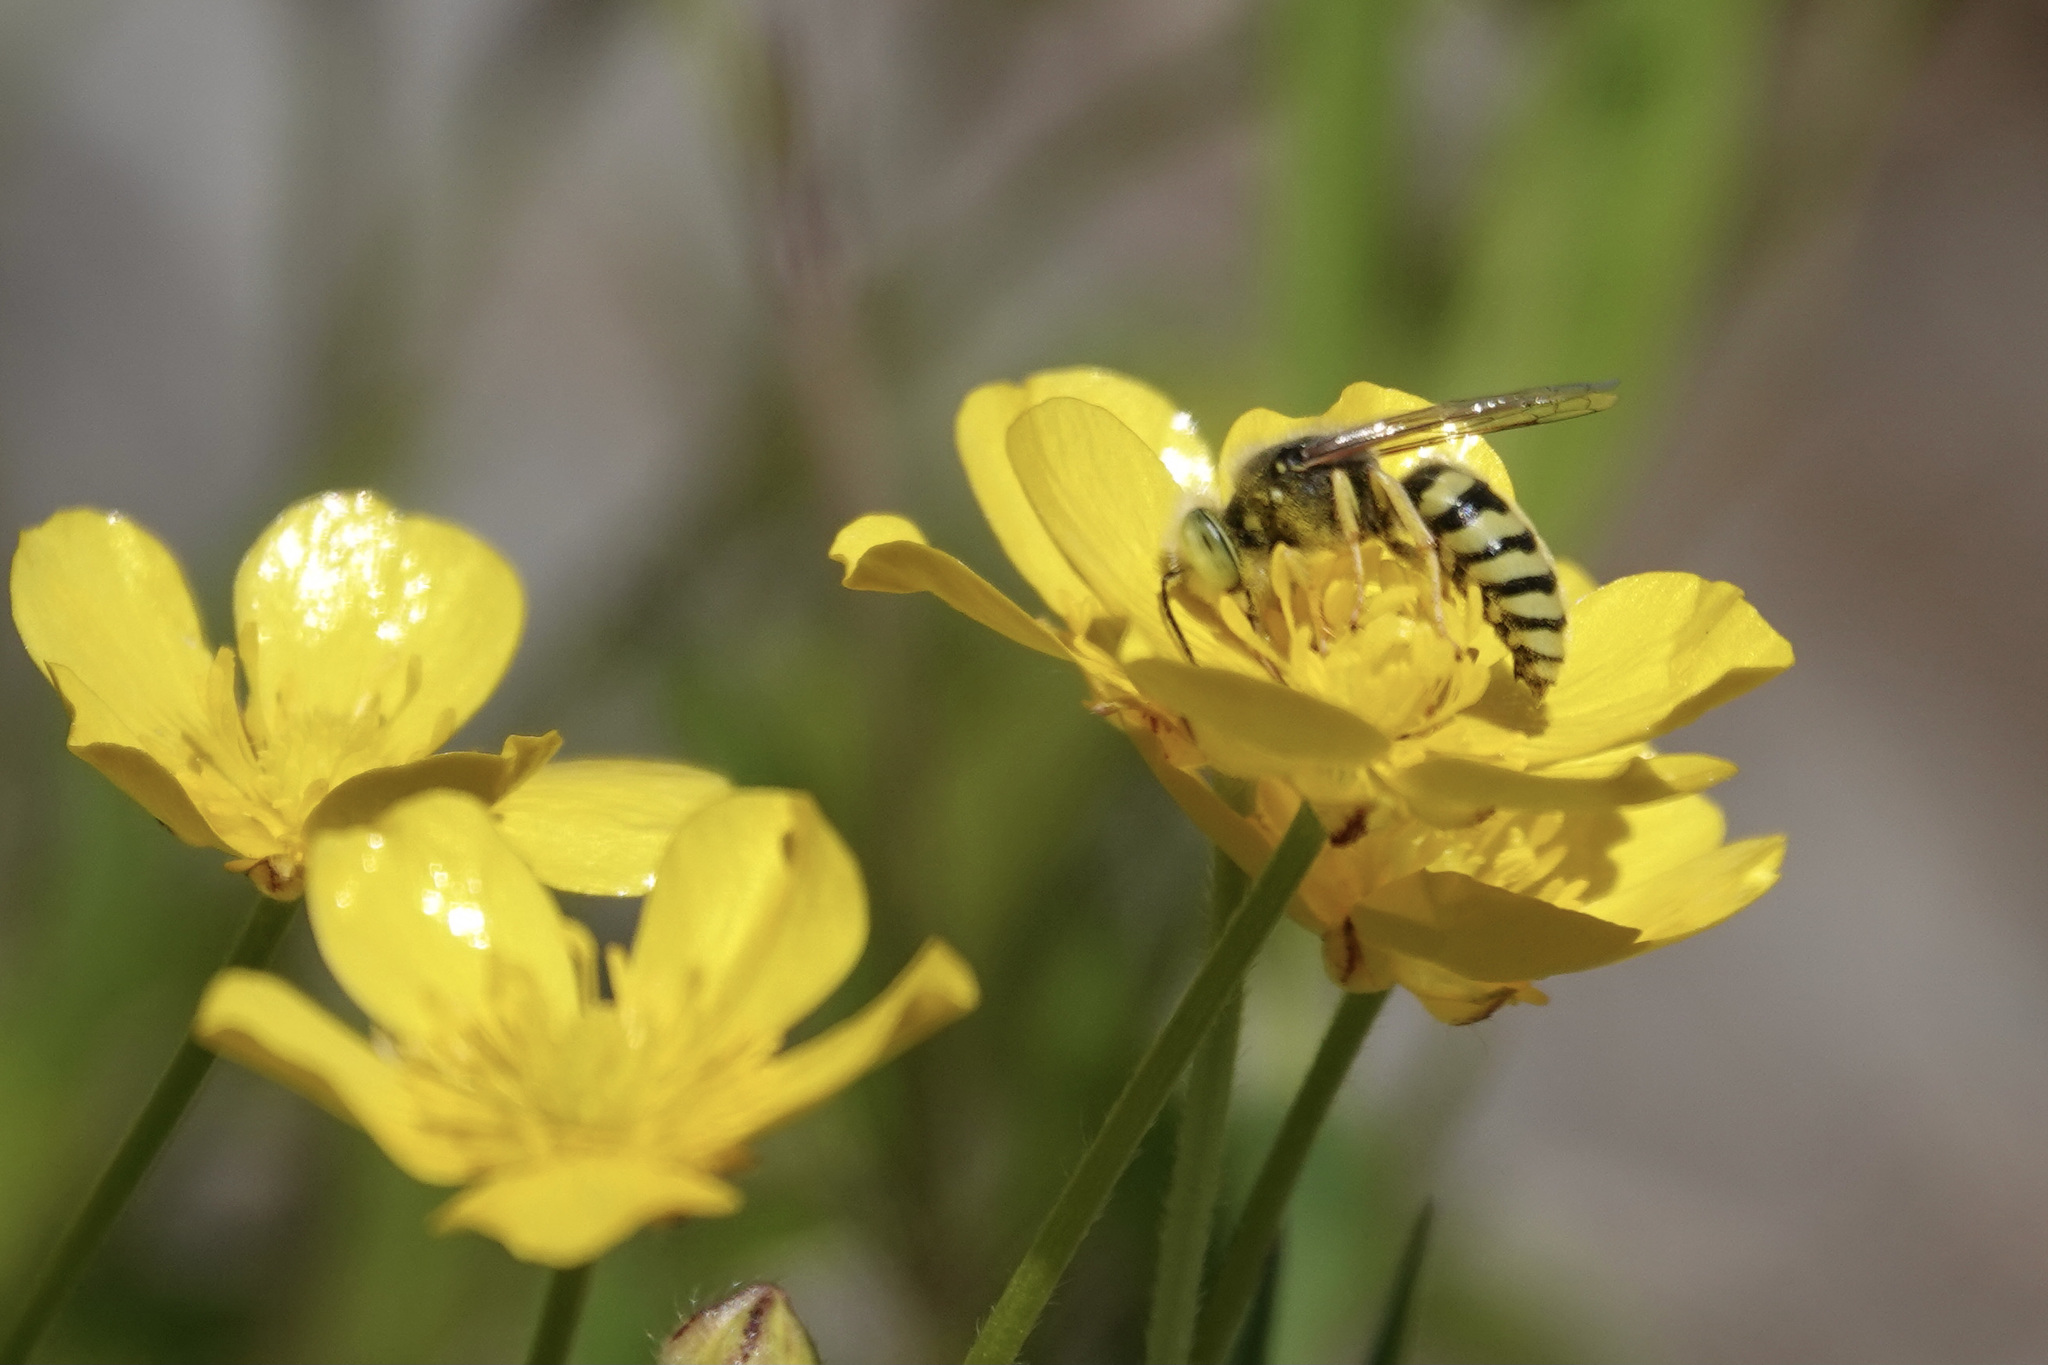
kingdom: Animalia
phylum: Arthropoda
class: Insecta
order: Hymenoptera
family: Crabronidae
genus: Bembix
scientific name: Bembix americana
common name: American sand wasp
